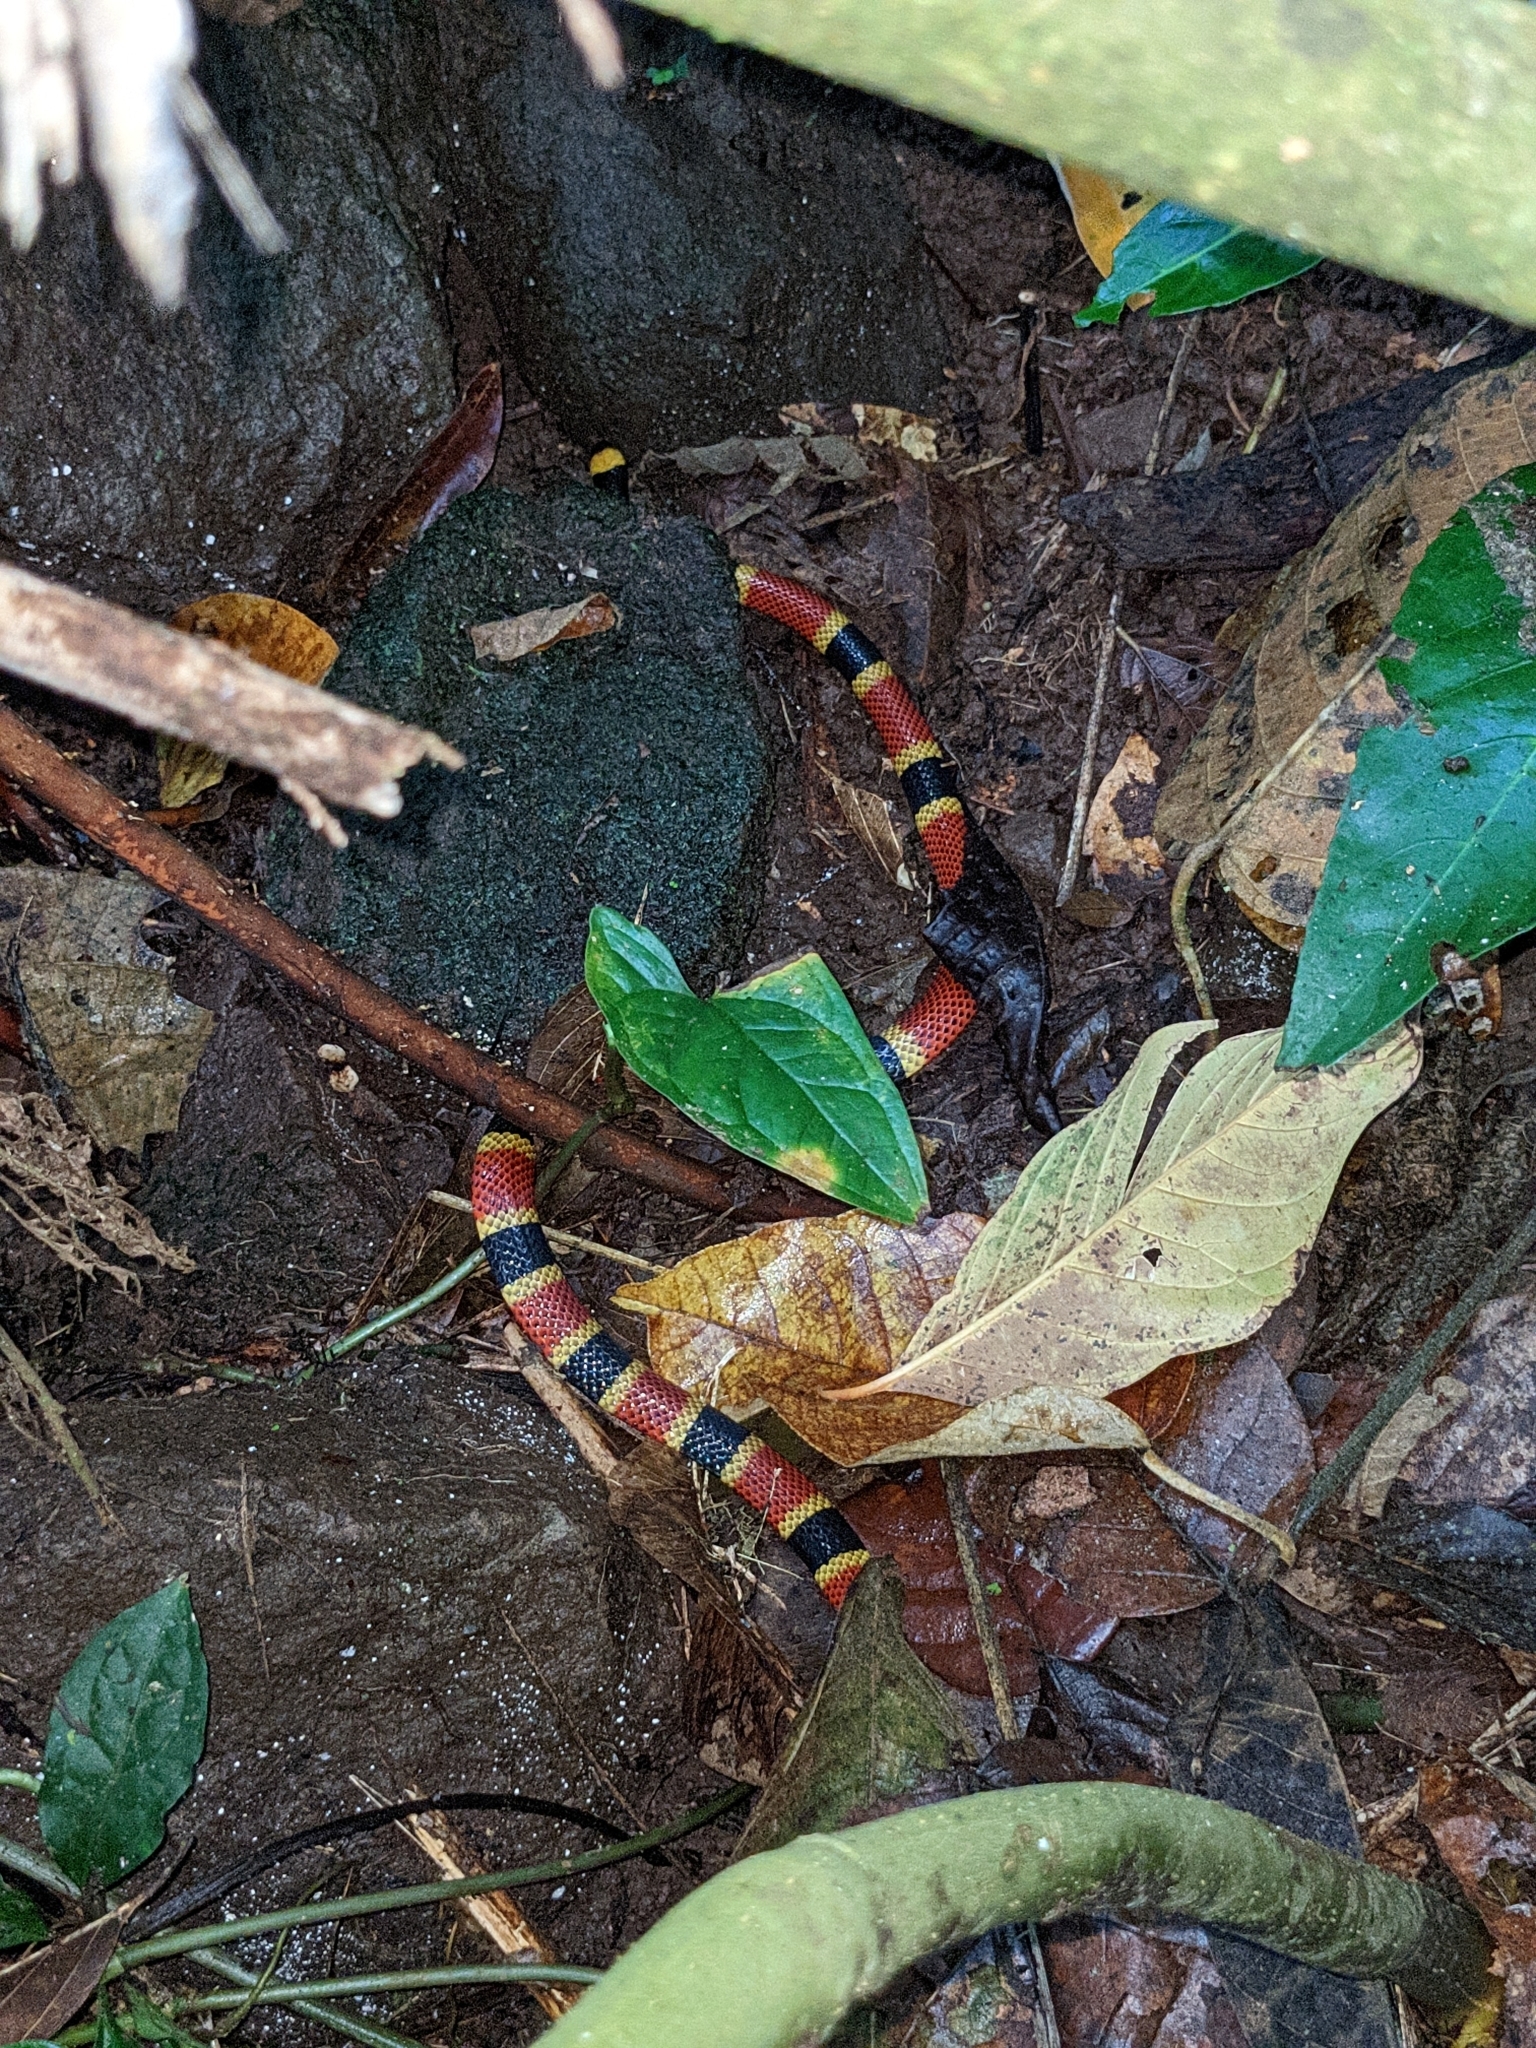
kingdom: Animalia
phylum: Chordata
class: Squamata
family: Elapidae
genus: Micrurus
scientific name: Micrurus mosquitensis
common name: Misquito coral snake
